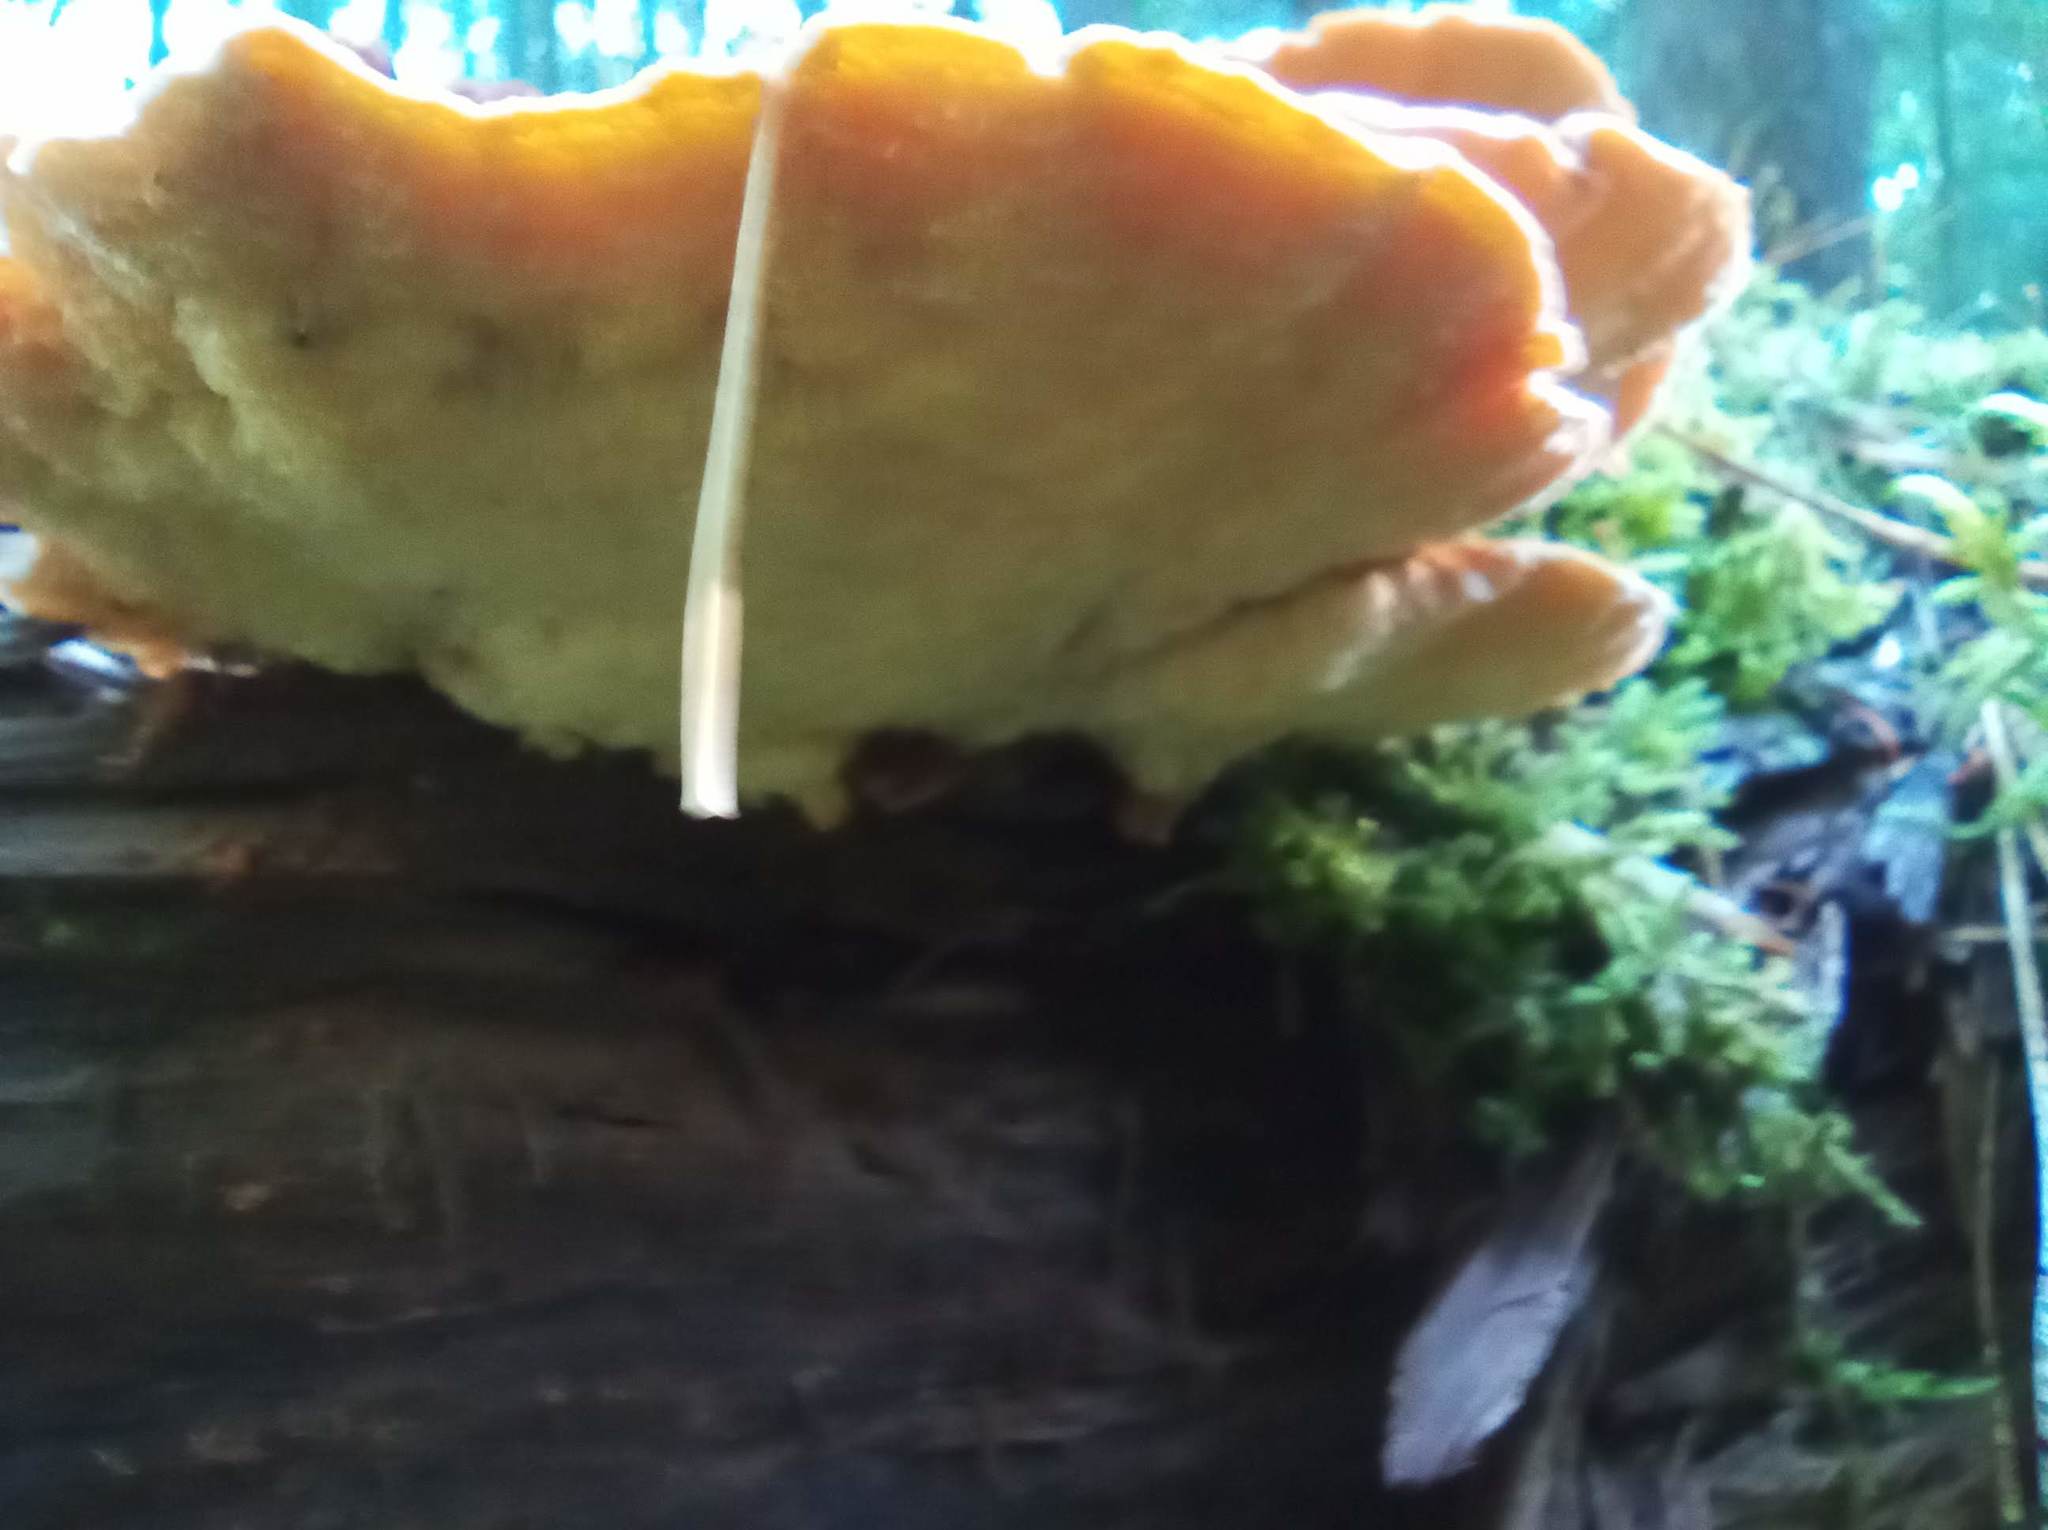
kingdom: Fungi
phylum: Basidiomycota
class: Agaricomycetes
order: Polyporales
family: Pycnoporellaceae
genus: Pycnoporellus
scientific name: Pycnoporellus fulgens
